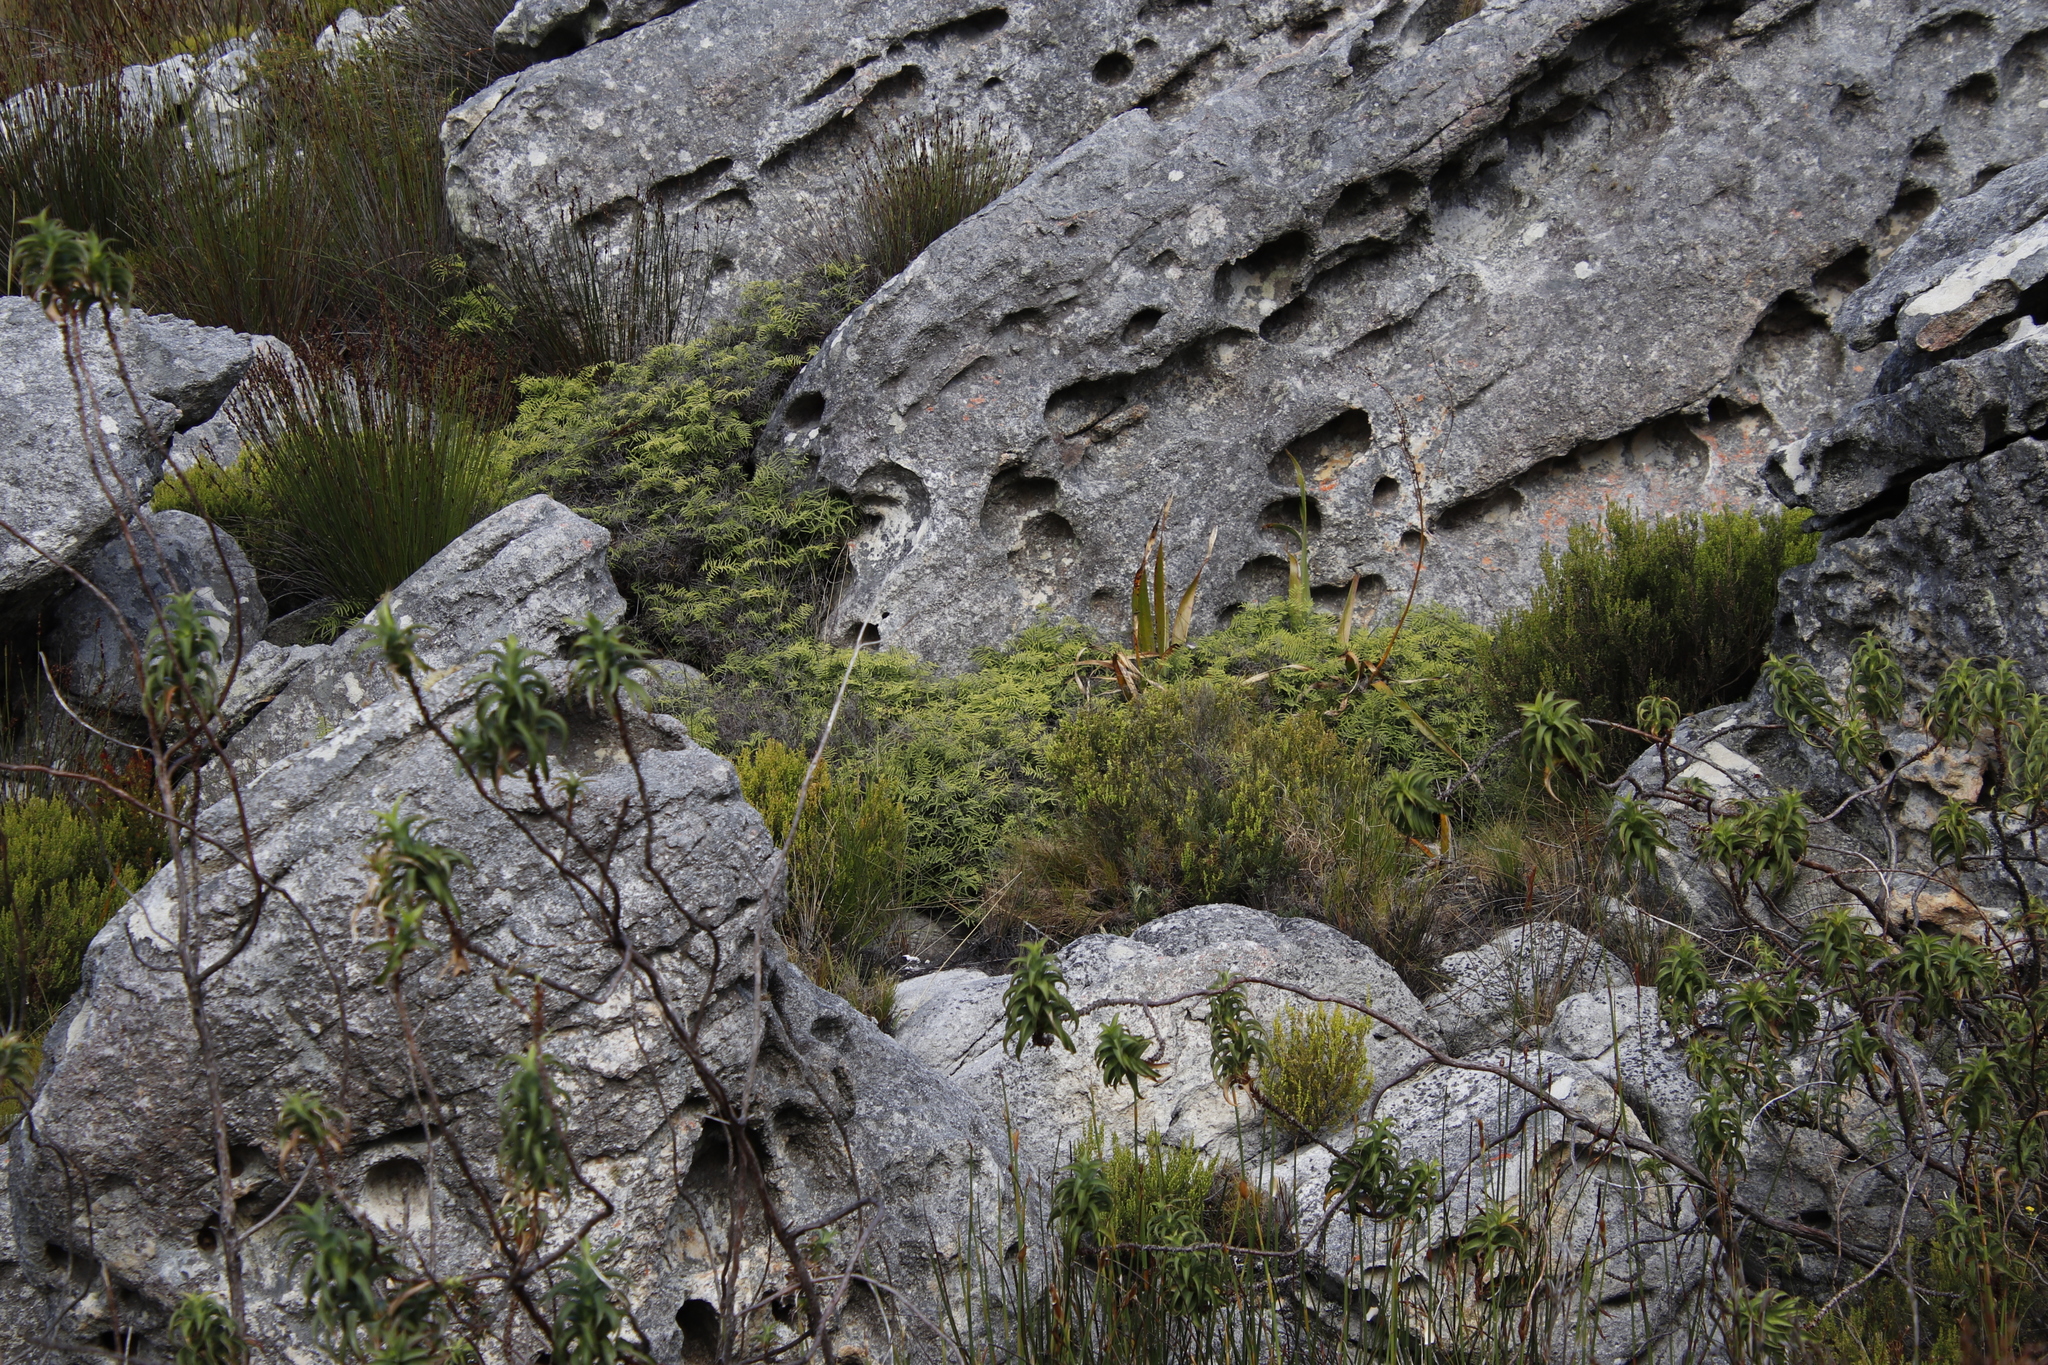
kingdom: Plantae
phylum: Tracheophyta
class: Polypodiopsida
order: Gleicheniales
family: Gleicheniaceae
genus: Gleichenia
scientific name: Gleichenia polypodioides
